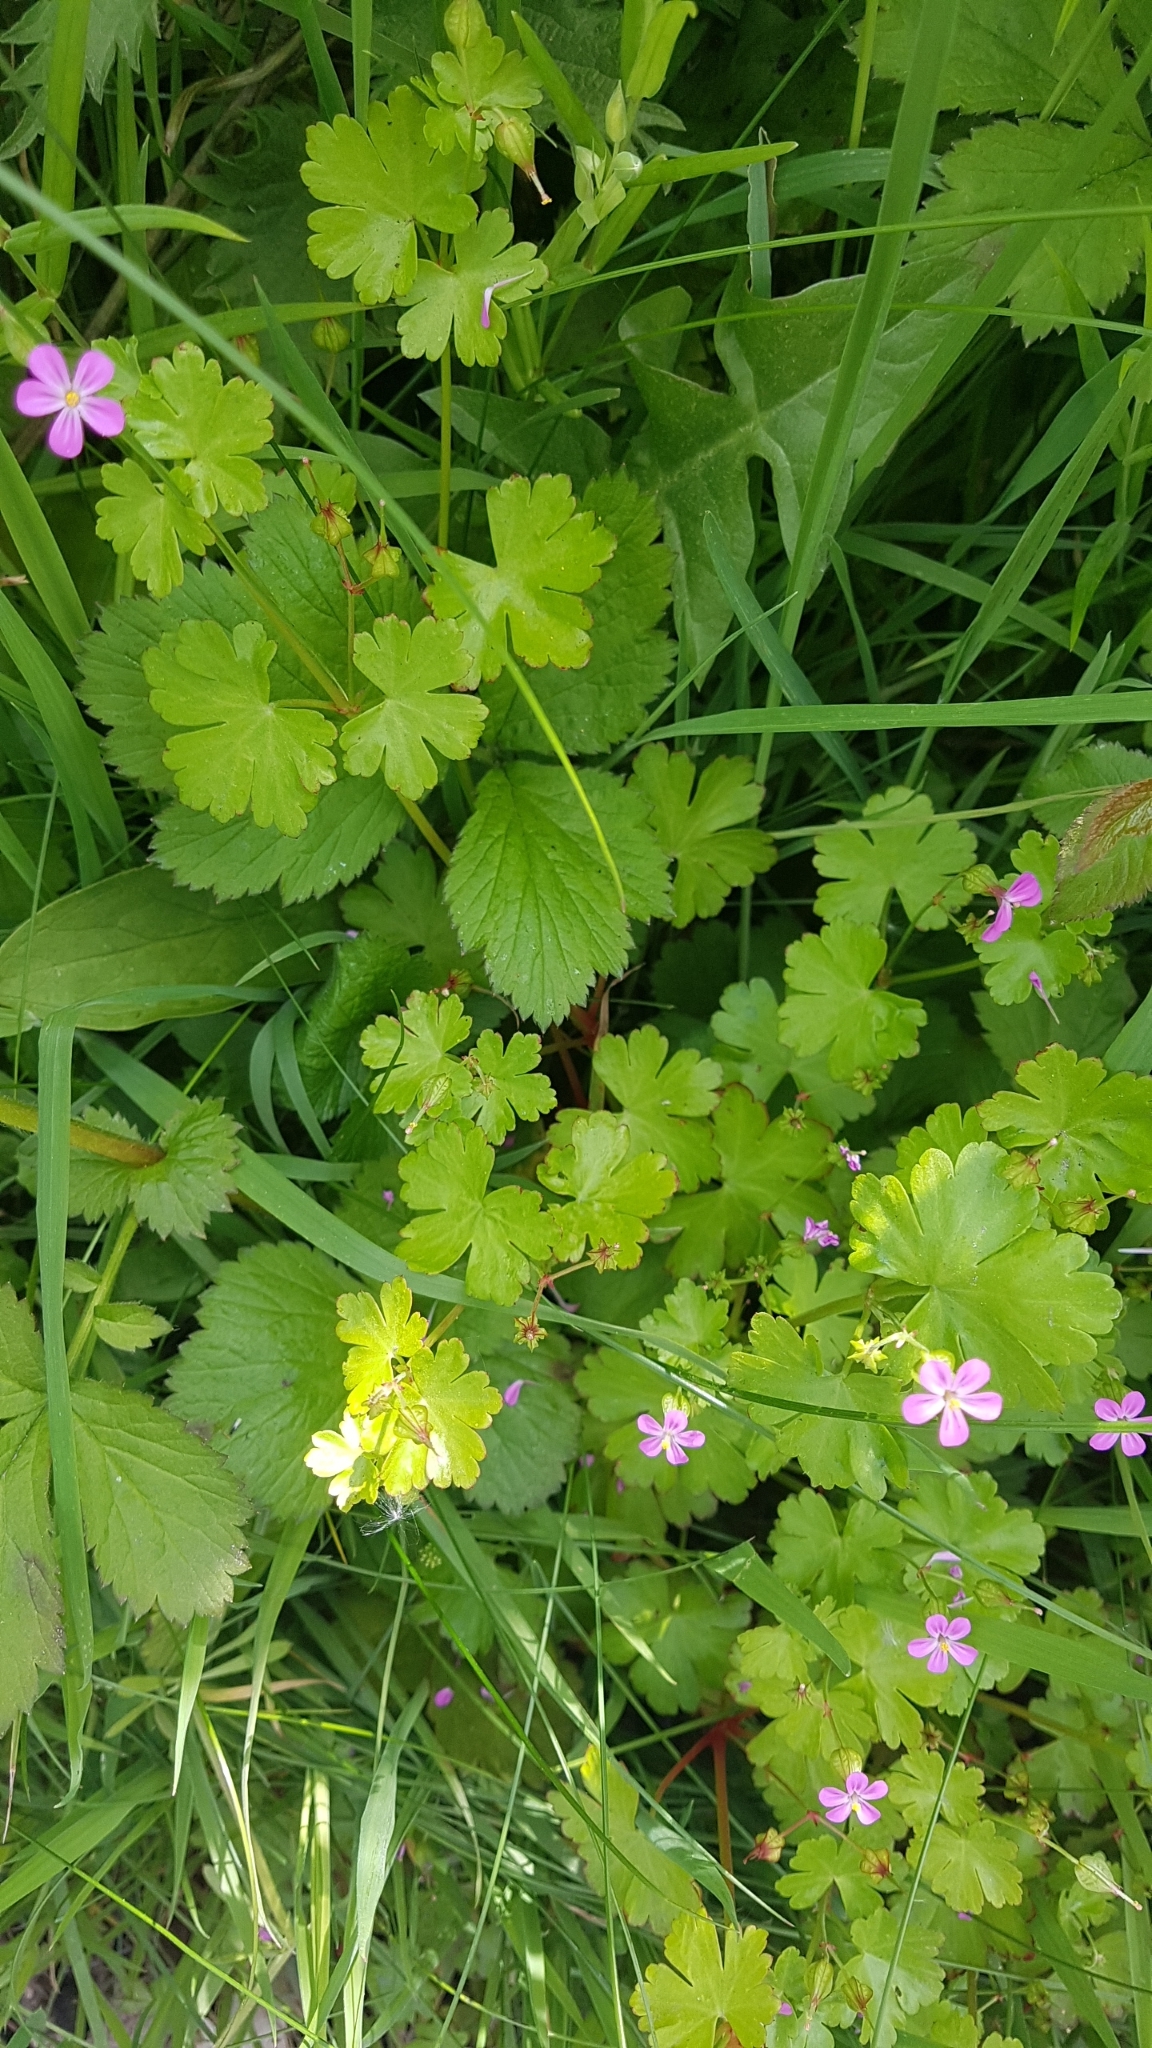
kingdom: Plantae
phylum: Tracheophyta
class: Magnoliopsida
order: Geraniales
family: Geraniaceae
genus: Geranium
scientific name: Geranium lucidum
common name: Shining crane's-bill
